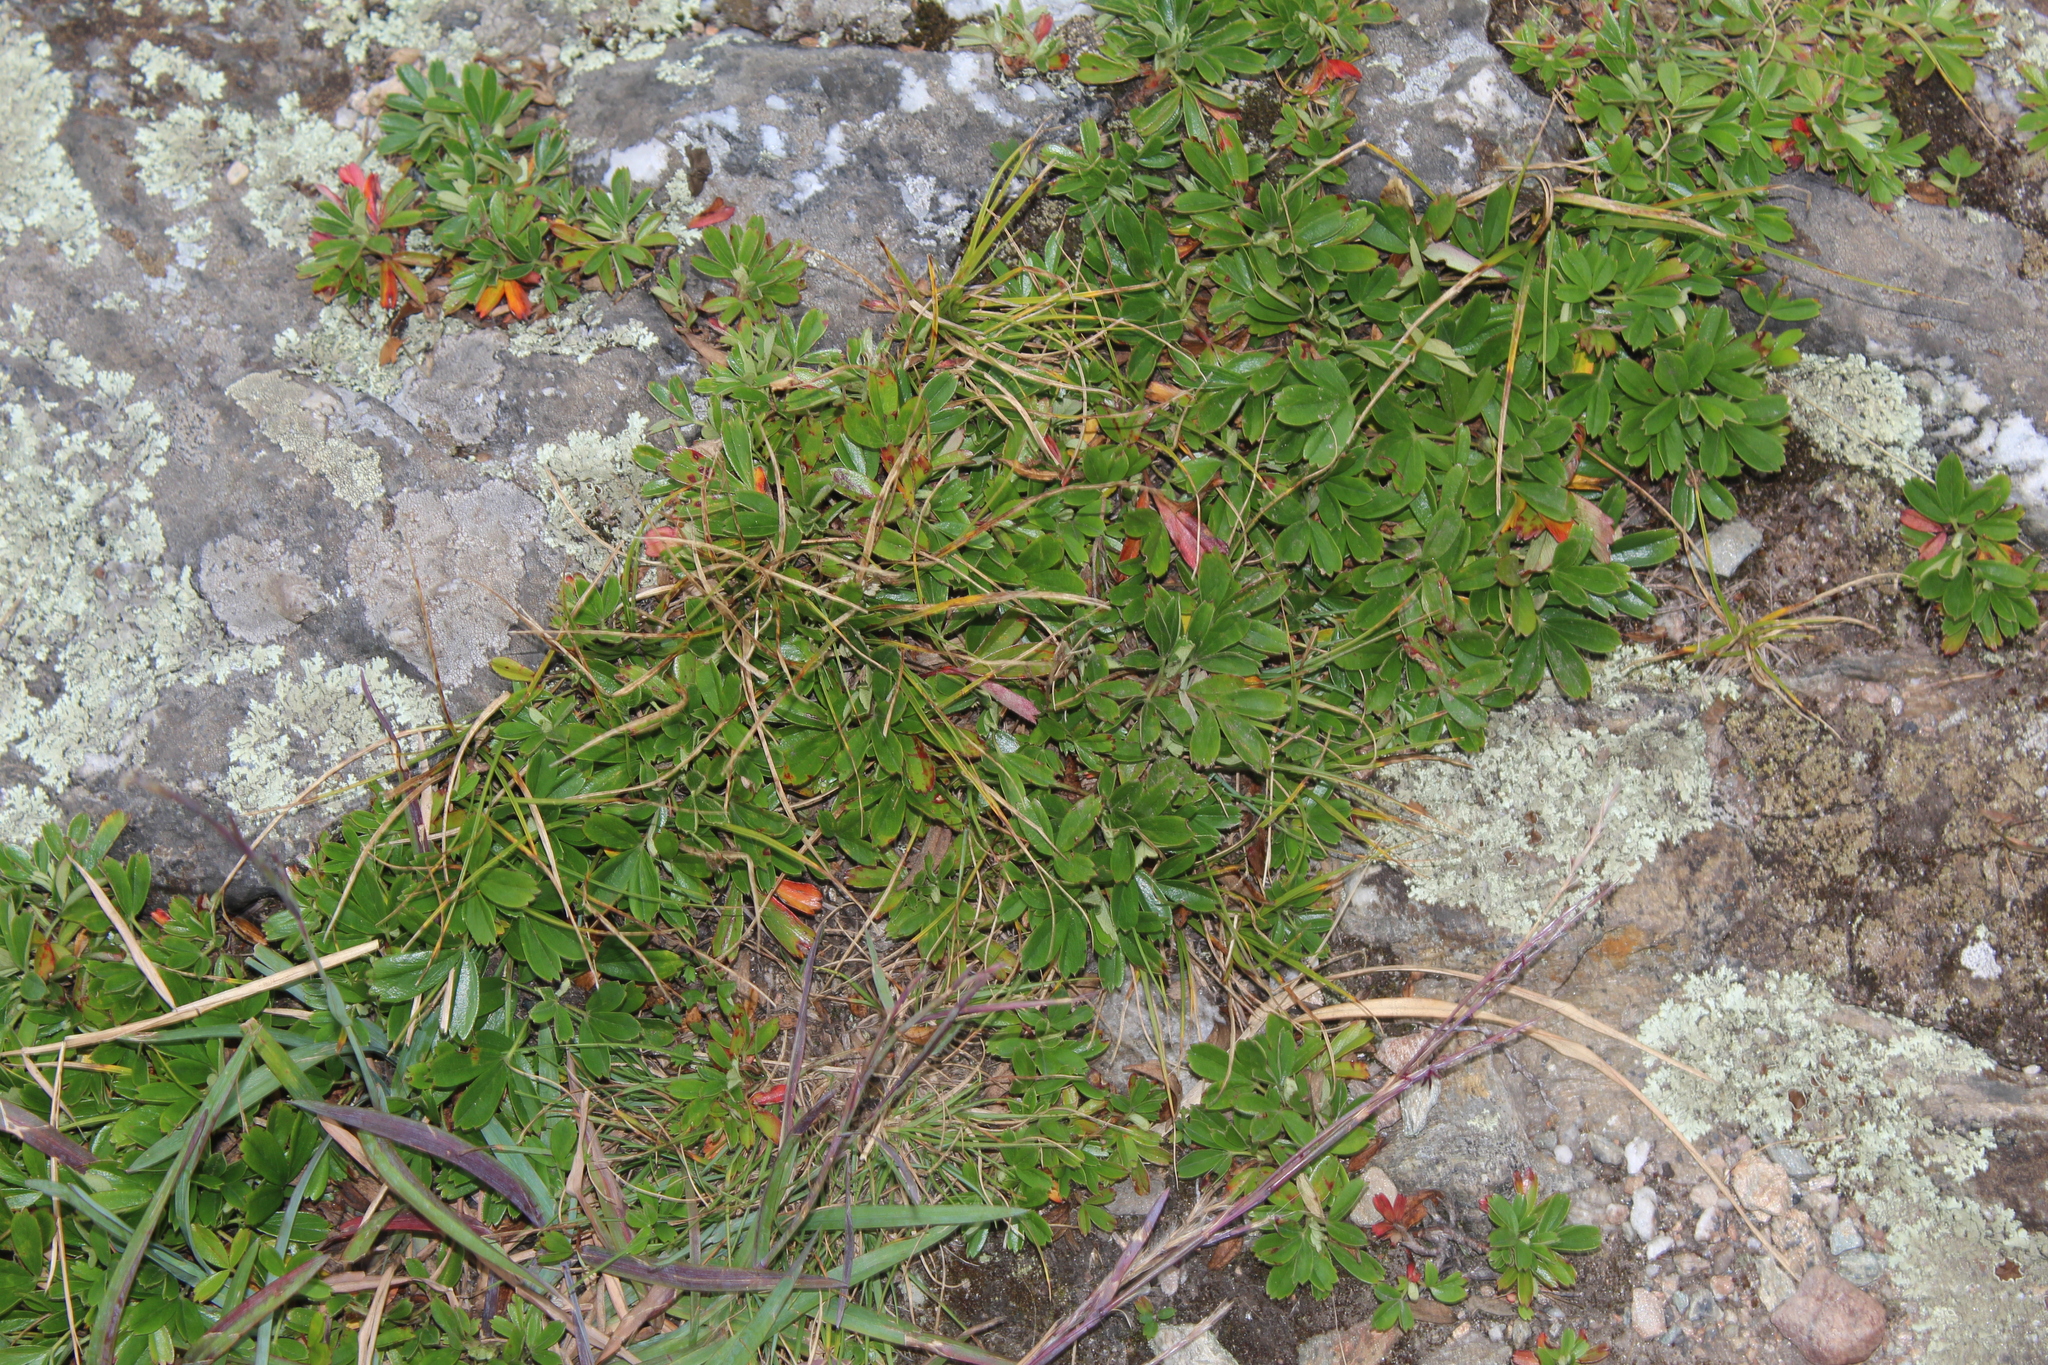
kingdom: Plantae
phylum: Tracheophyta
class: Magnoliopsida
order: Rosales
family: Rosaceae
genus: Sibbaldia
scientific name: Sibbaldia tridentata
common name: Three-toothed cinquefoil
